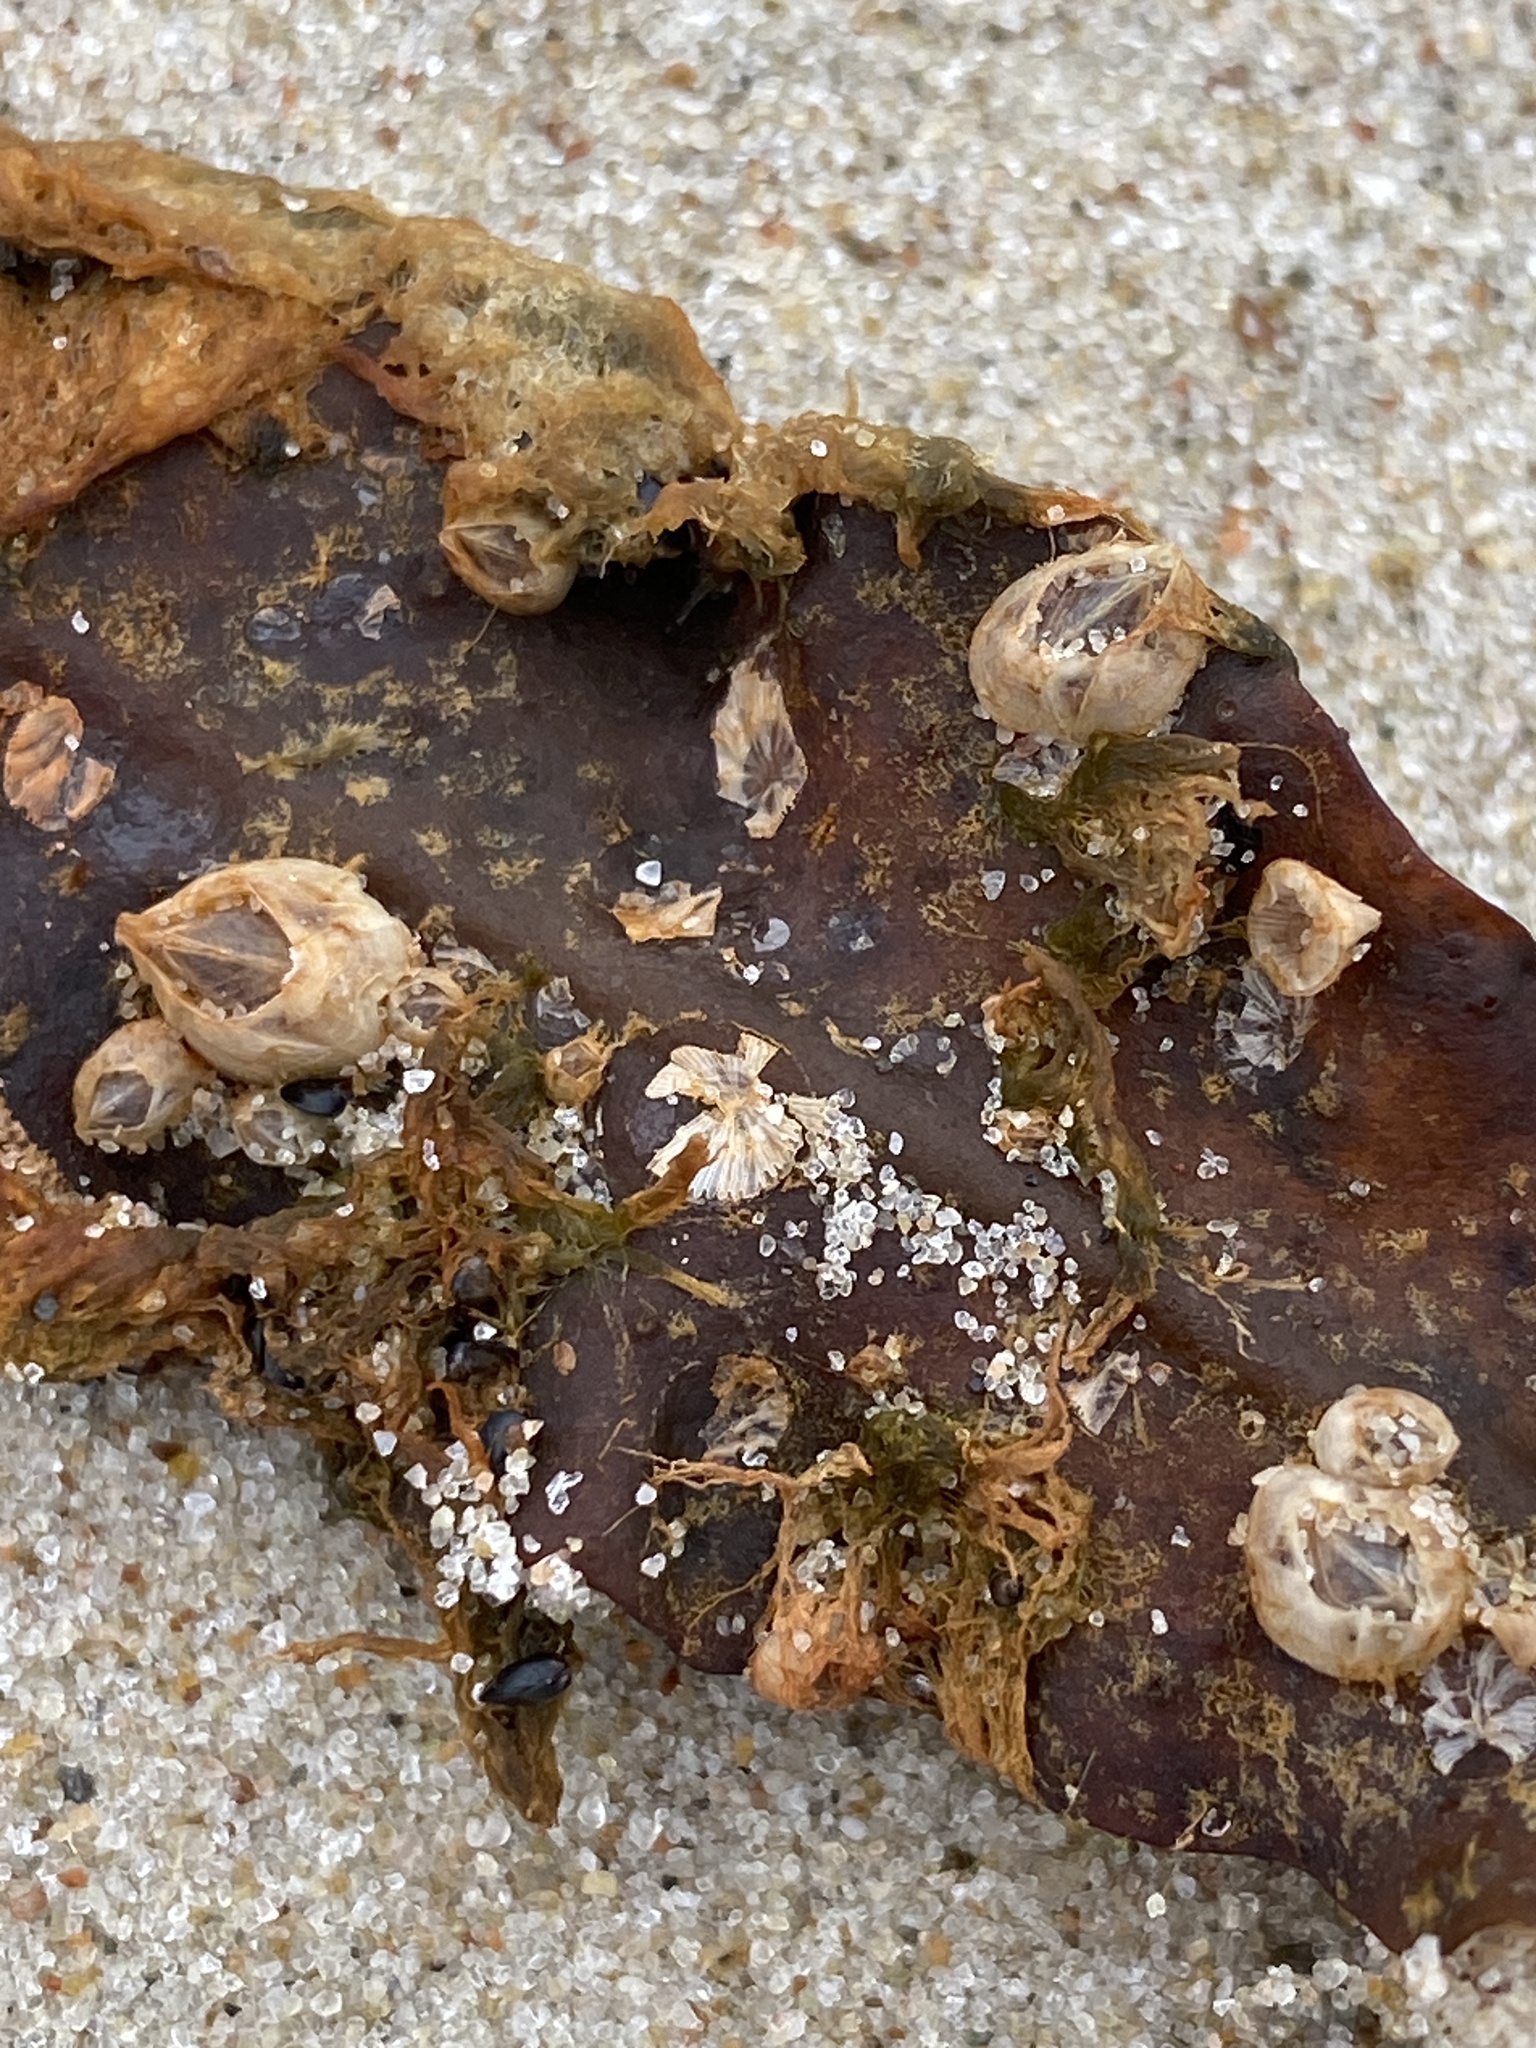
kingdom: Animalia
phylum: Arthropoda
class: Maxillopoda
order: Sessilia
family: Balanidae
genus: Amphibalanus
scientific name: Amphibalanus improvisus
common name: Bay barnacle
